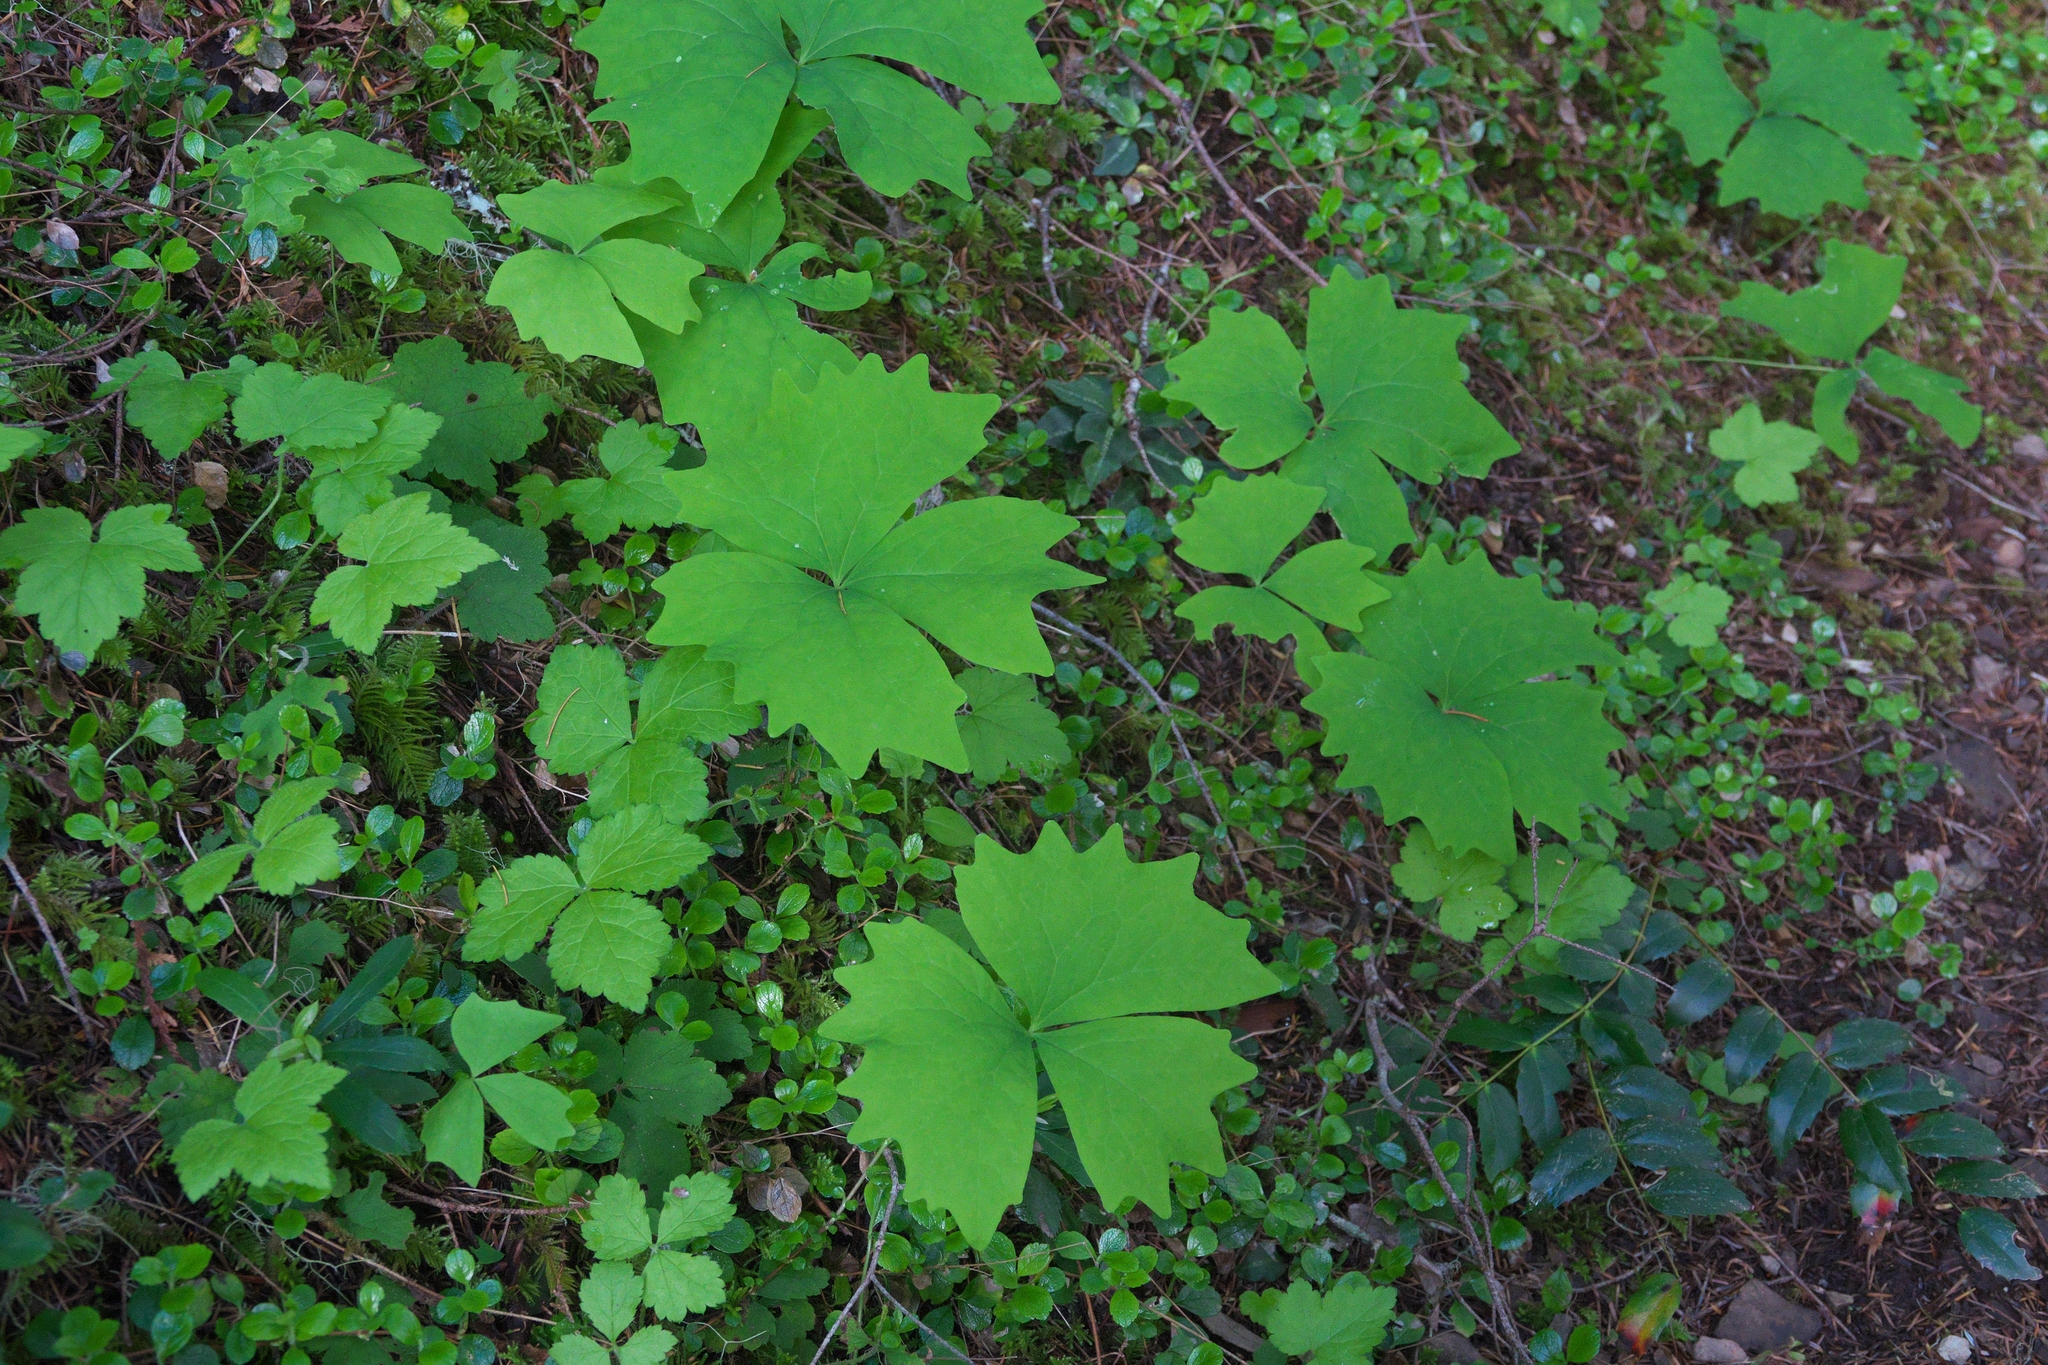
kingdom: Plantae
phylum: Tracheophyta
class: Magnoliopsida
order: Ranunculales
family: Berberidaceae
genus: Achlys
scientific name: Achlys triphylla
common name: Vanilla-leaf
